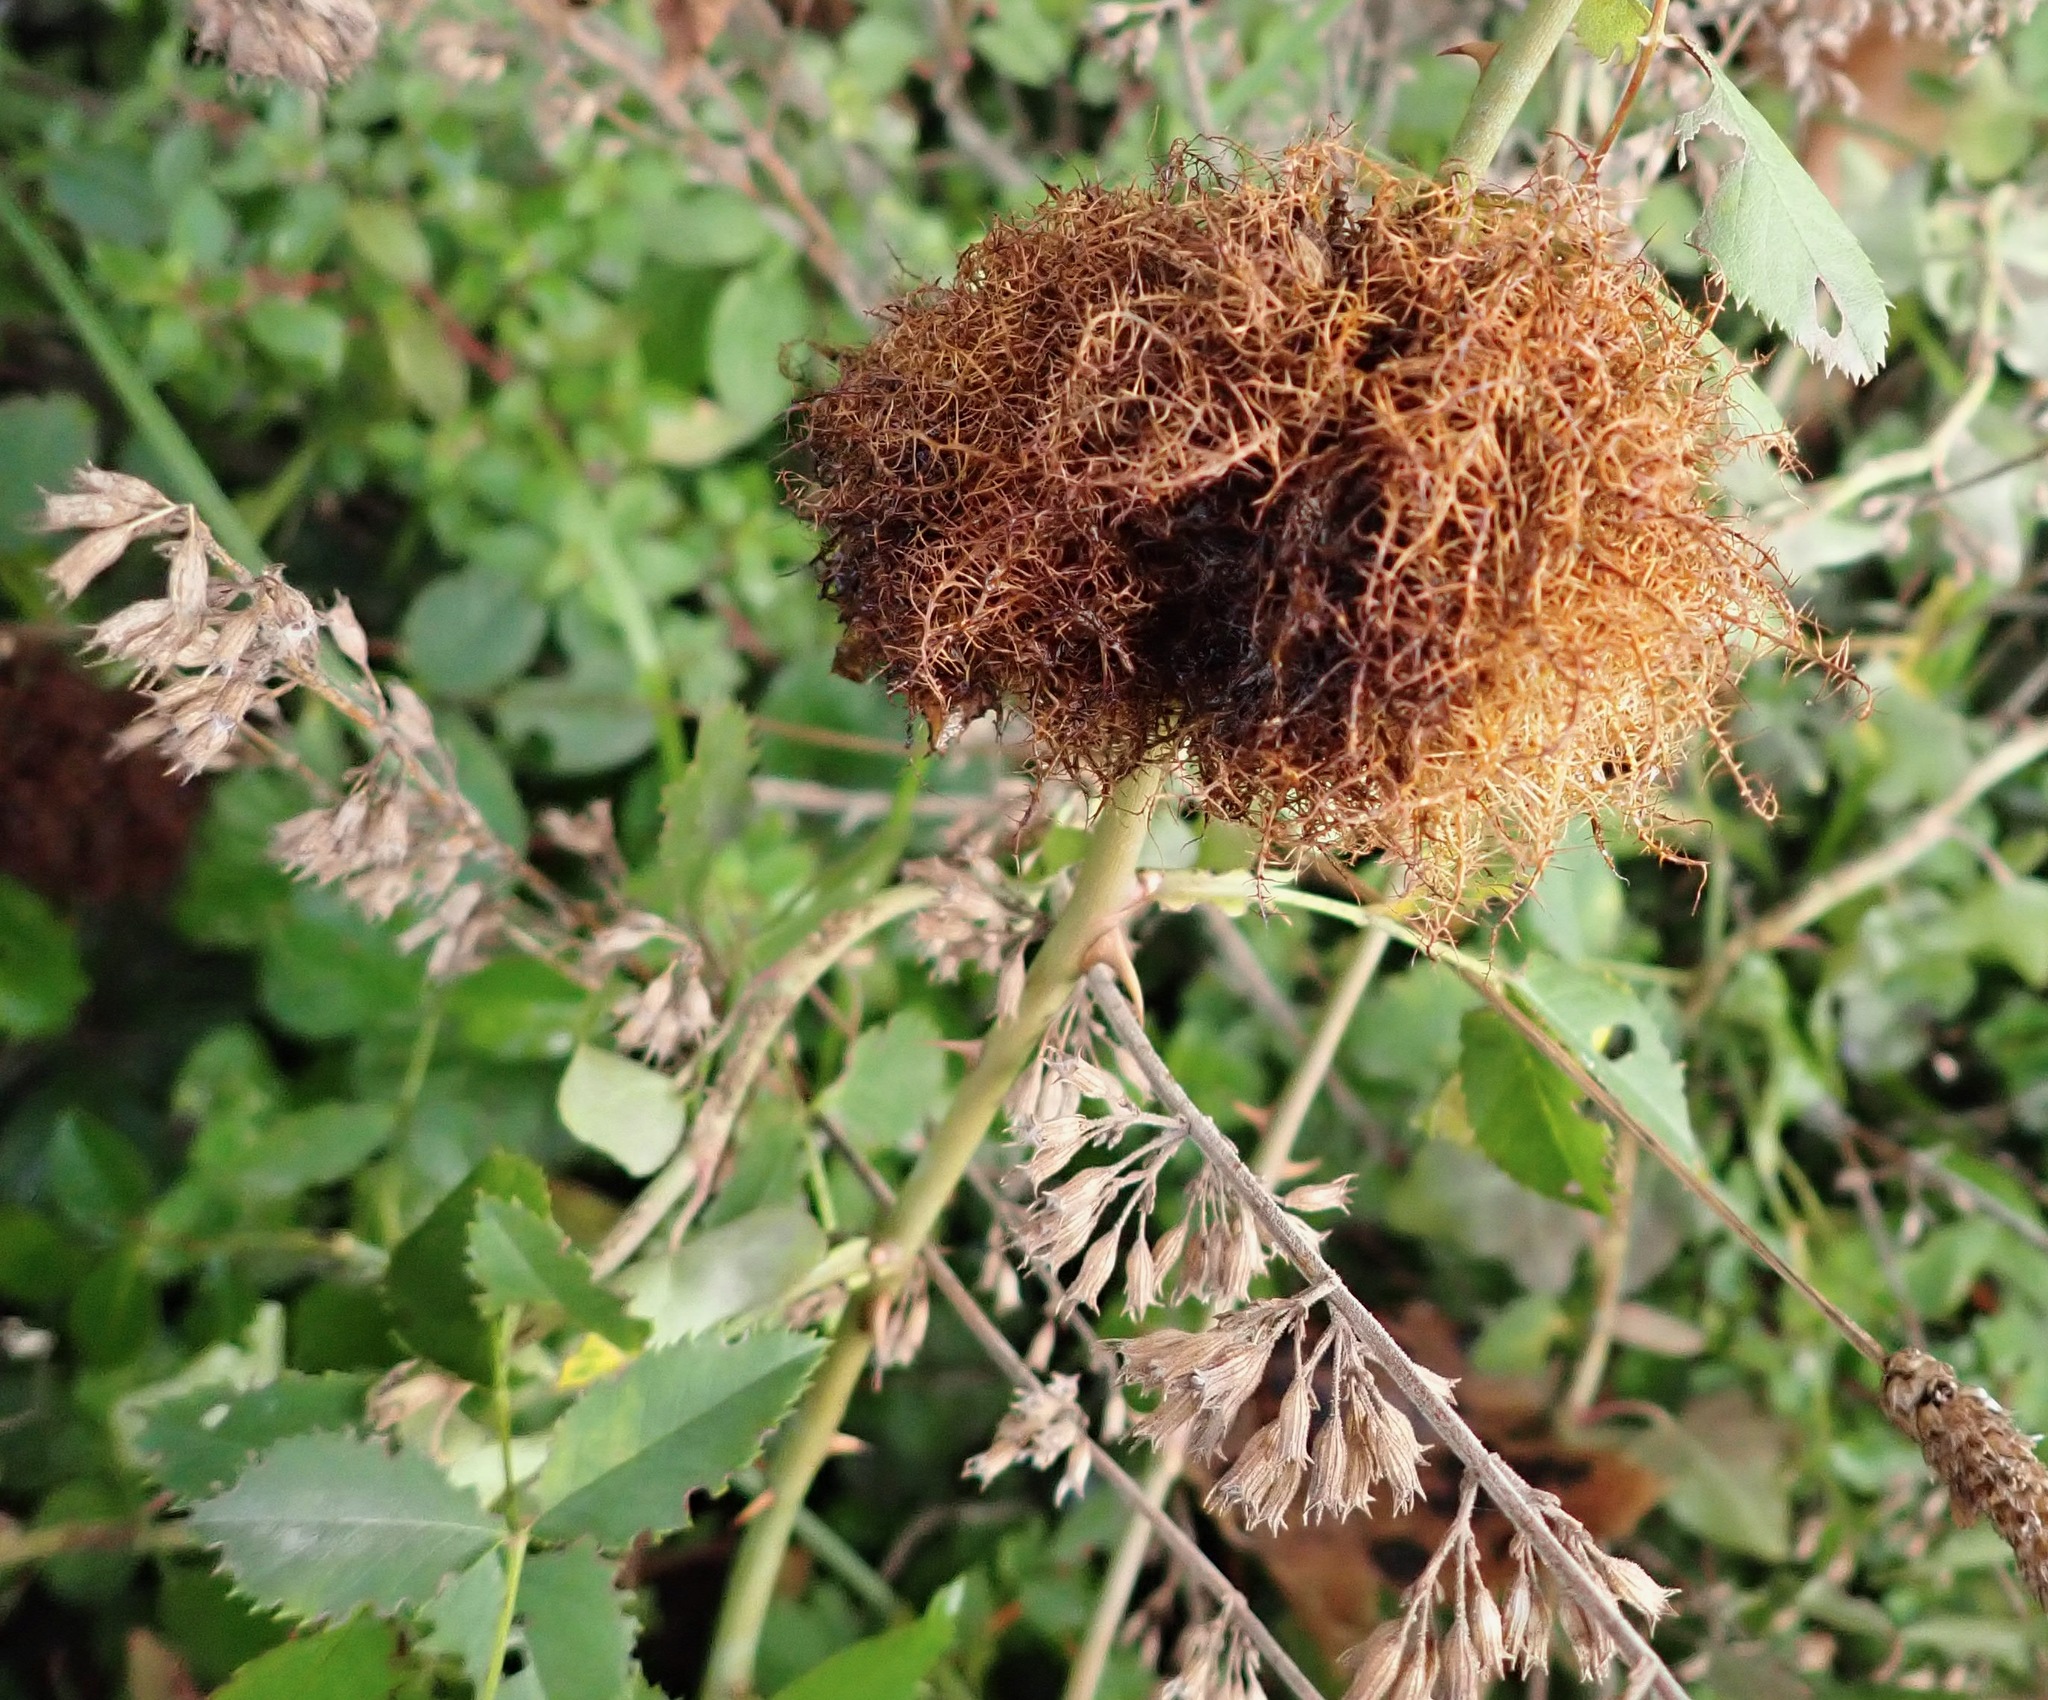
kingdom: Animalia
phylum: Arthropoda
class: Insecta
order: Hymenoptera
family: Cynipidae
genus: Diplolepis
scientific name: Diplolepis rosae
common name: Bedeguar gall
